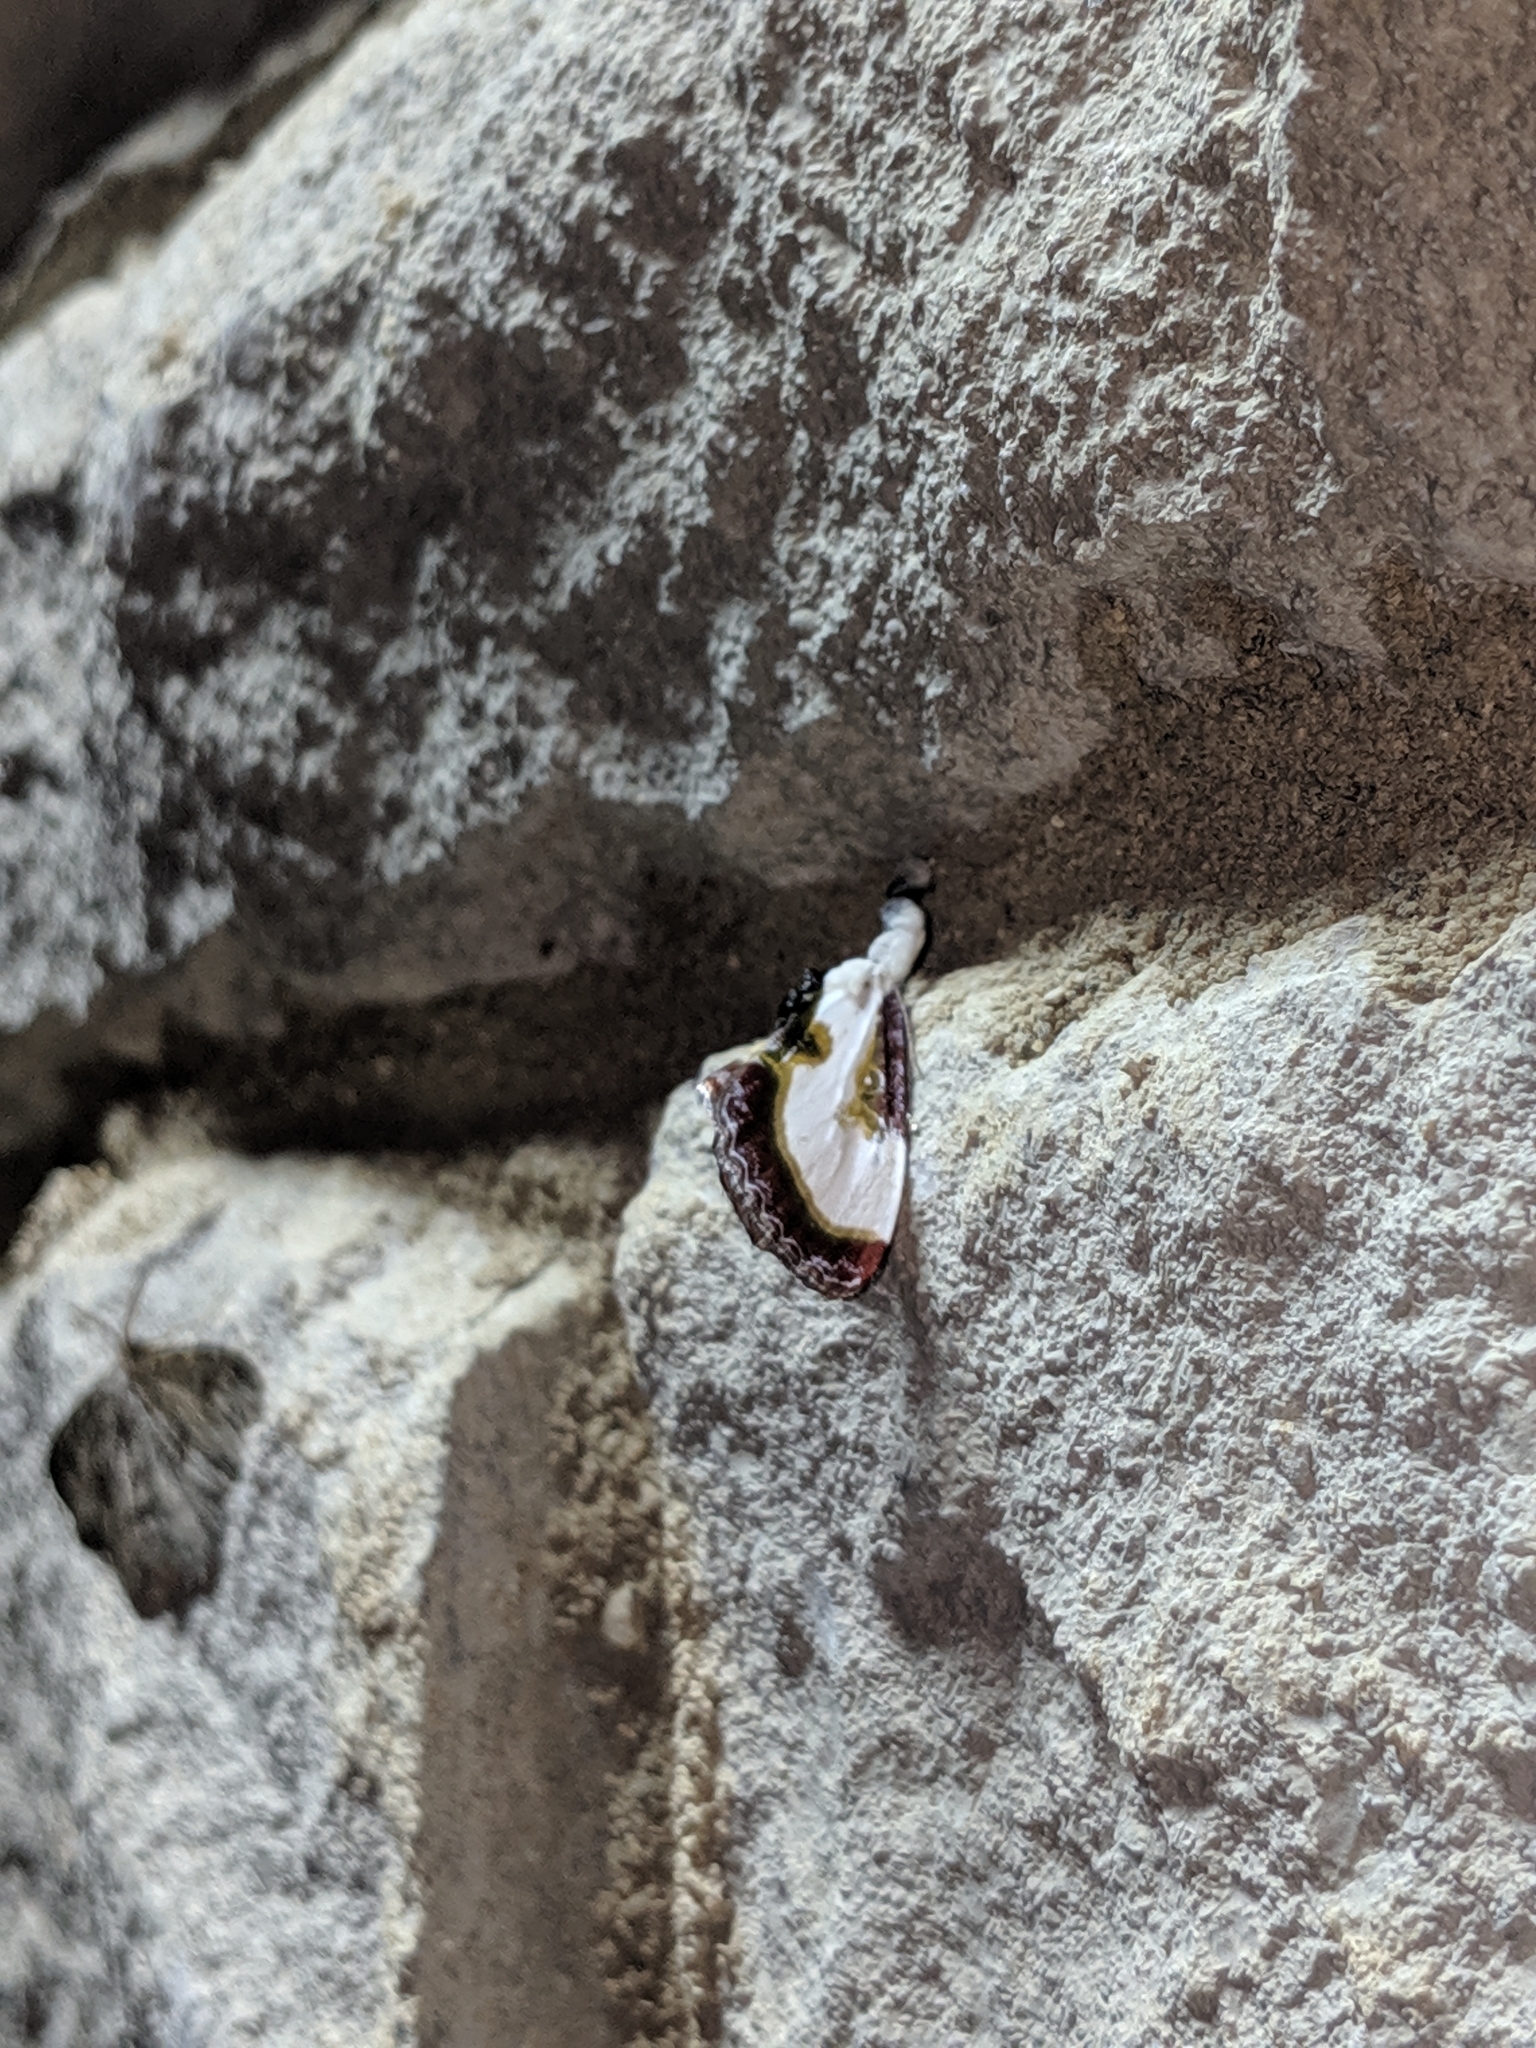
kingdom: Animalia
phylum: Arthropoda
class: Insecta
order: Lepidoptera
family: Noctuidae
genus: Eudryas
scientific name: Eudryas grata
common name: Beautiful wood-nymph
